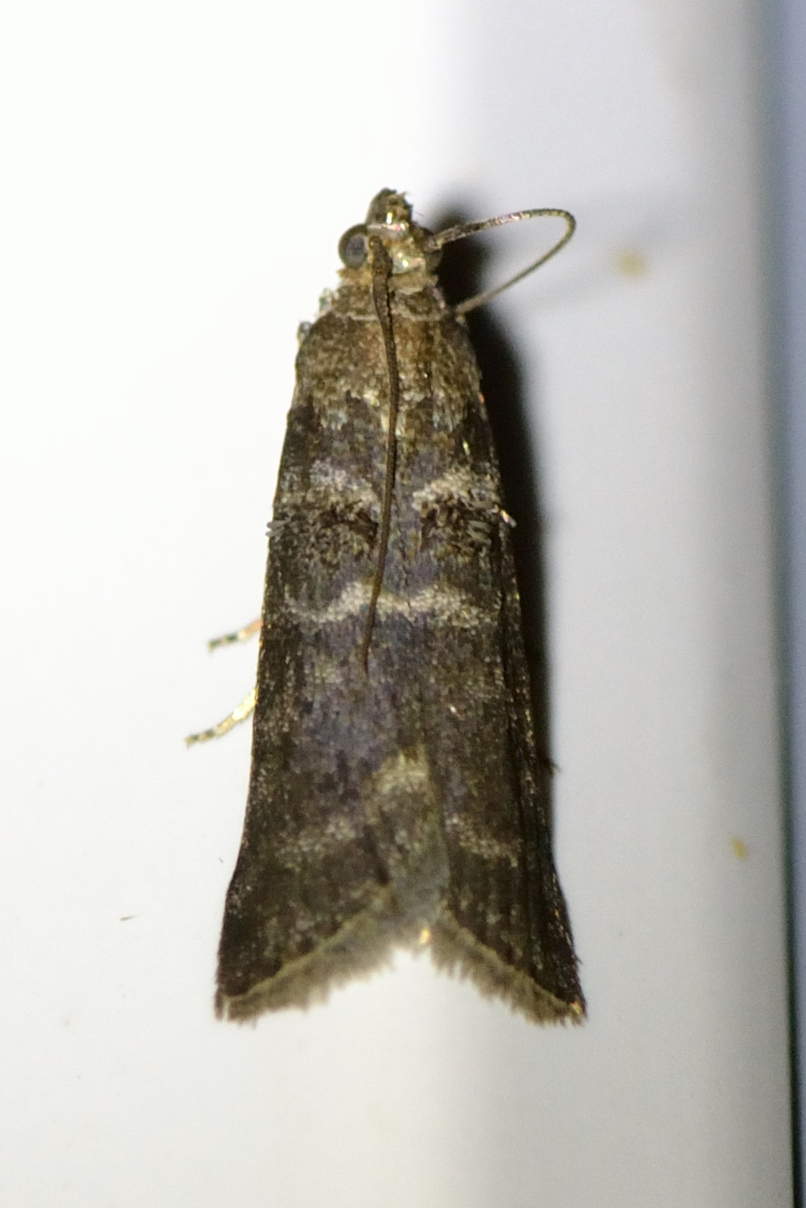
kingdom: Animalia
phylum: Arthropoda
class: Insecta
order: Lepidoptera
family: Pyralidae
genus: Ortholepis
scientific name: Ortholepis betulae
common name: Birch knot-horn
